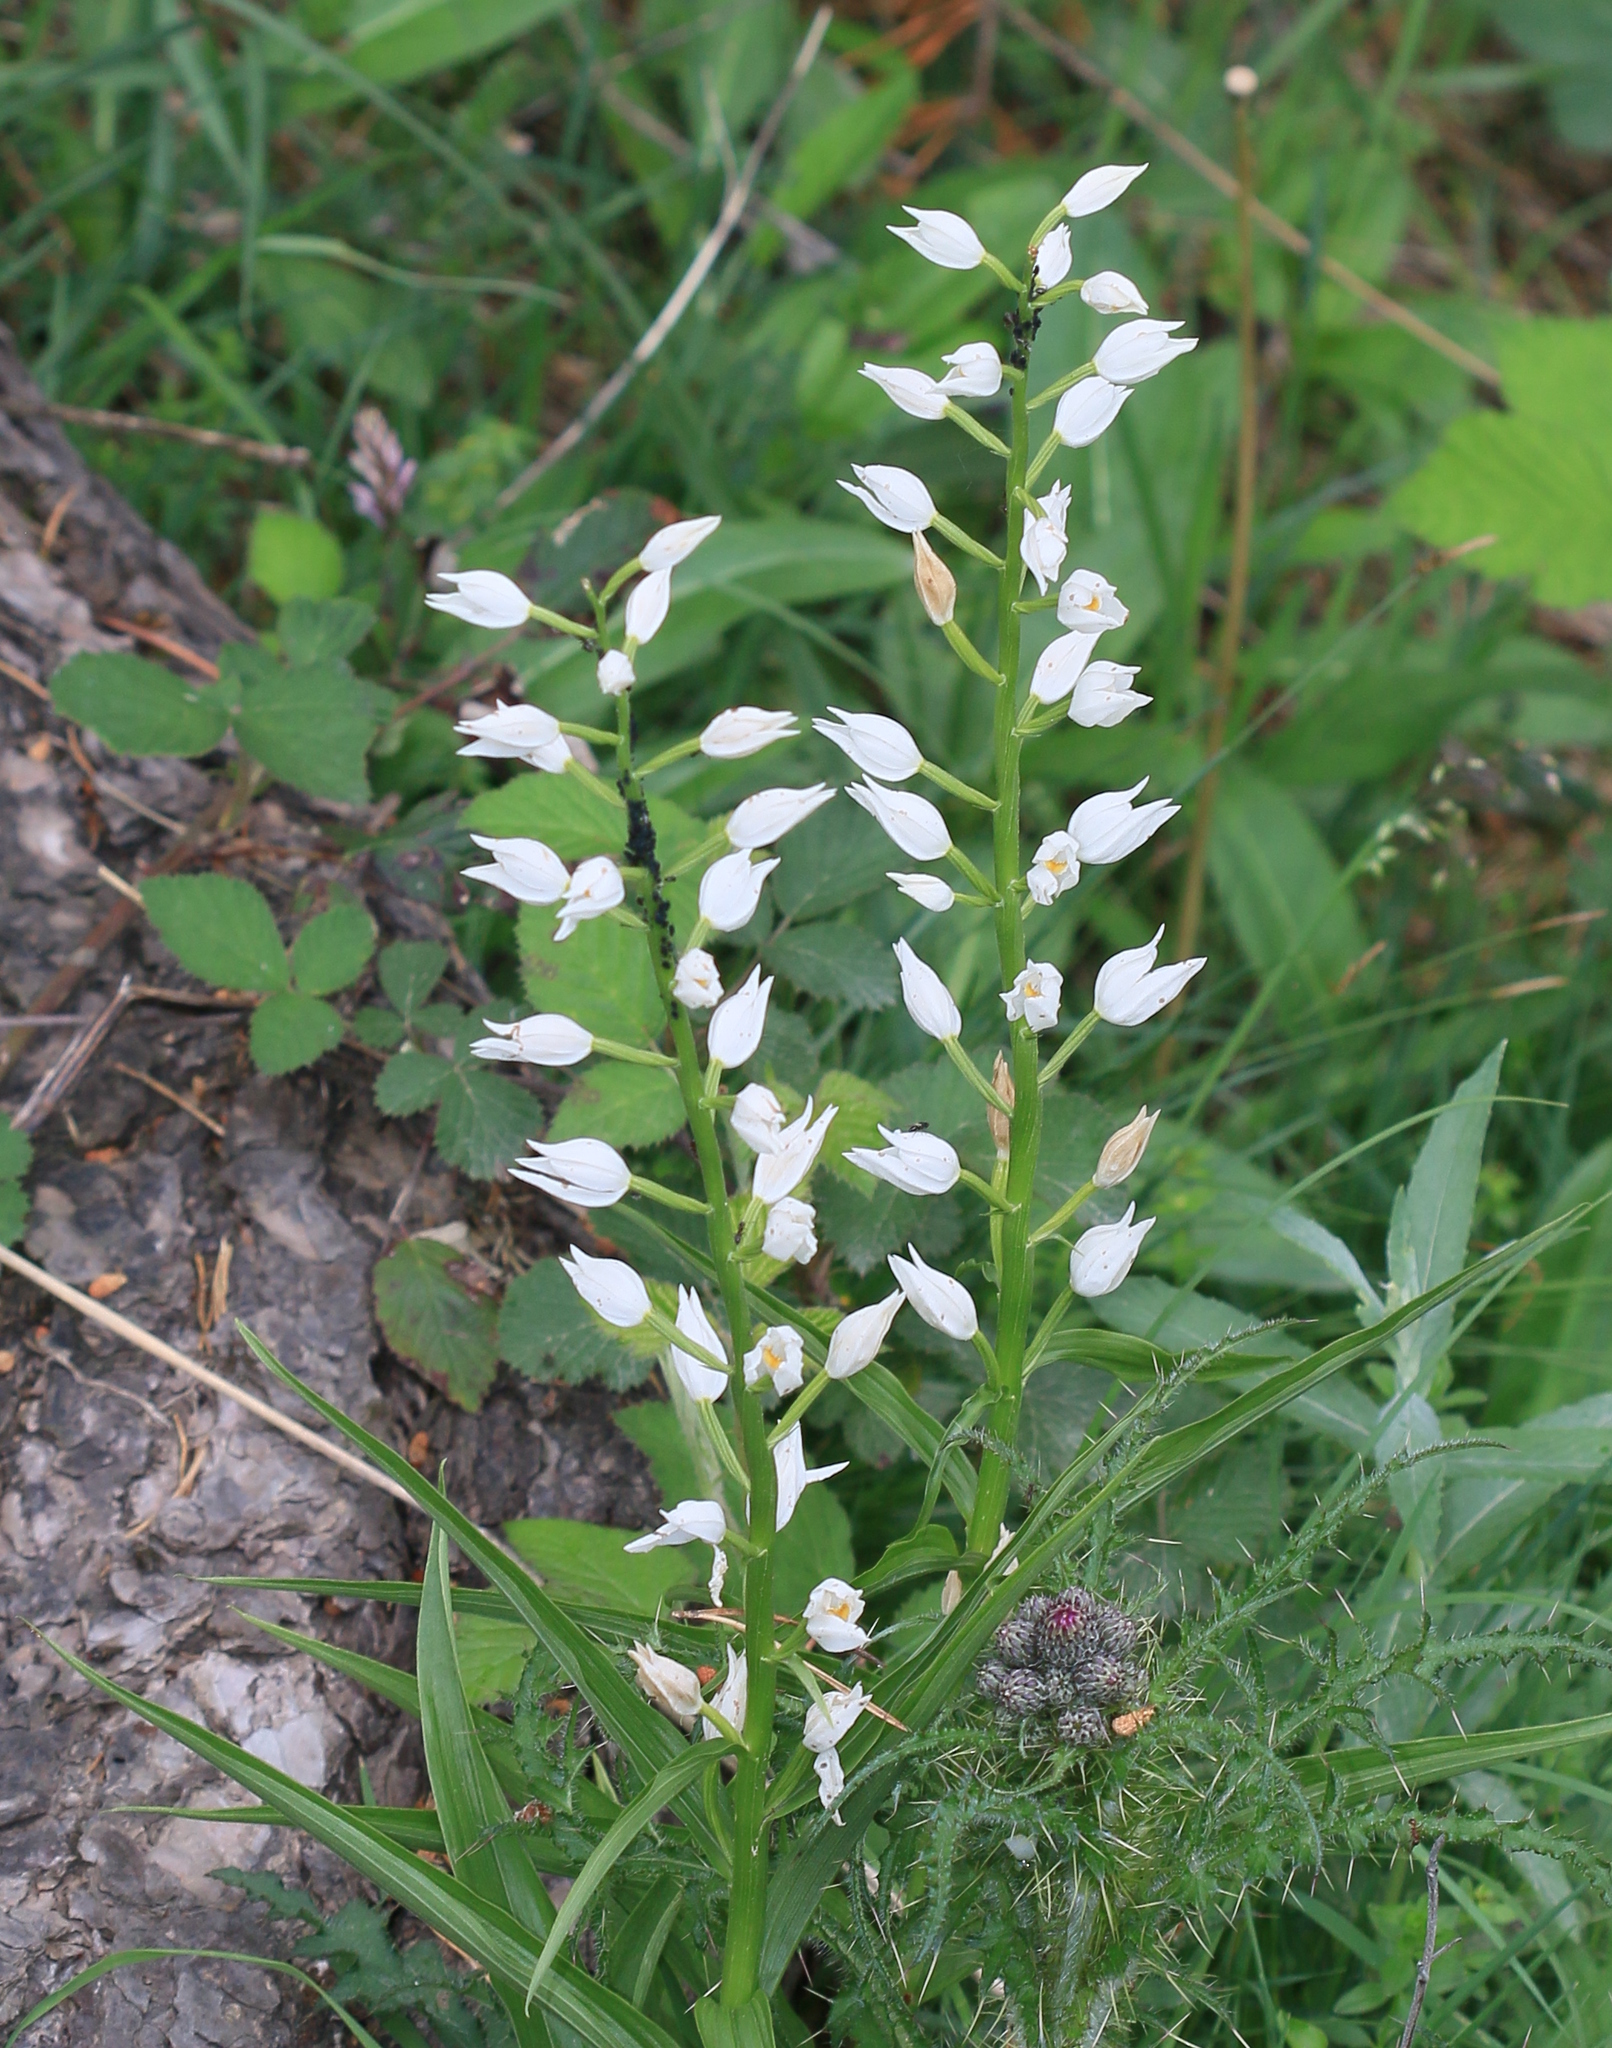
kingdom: Plantae
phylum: Tracheophyta
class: Liliopsida
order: Asparagales
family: Orchidaceae
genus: Cephalanthera
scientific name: Cephalanthera longifolia
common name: Narrow-leaved helleborine
